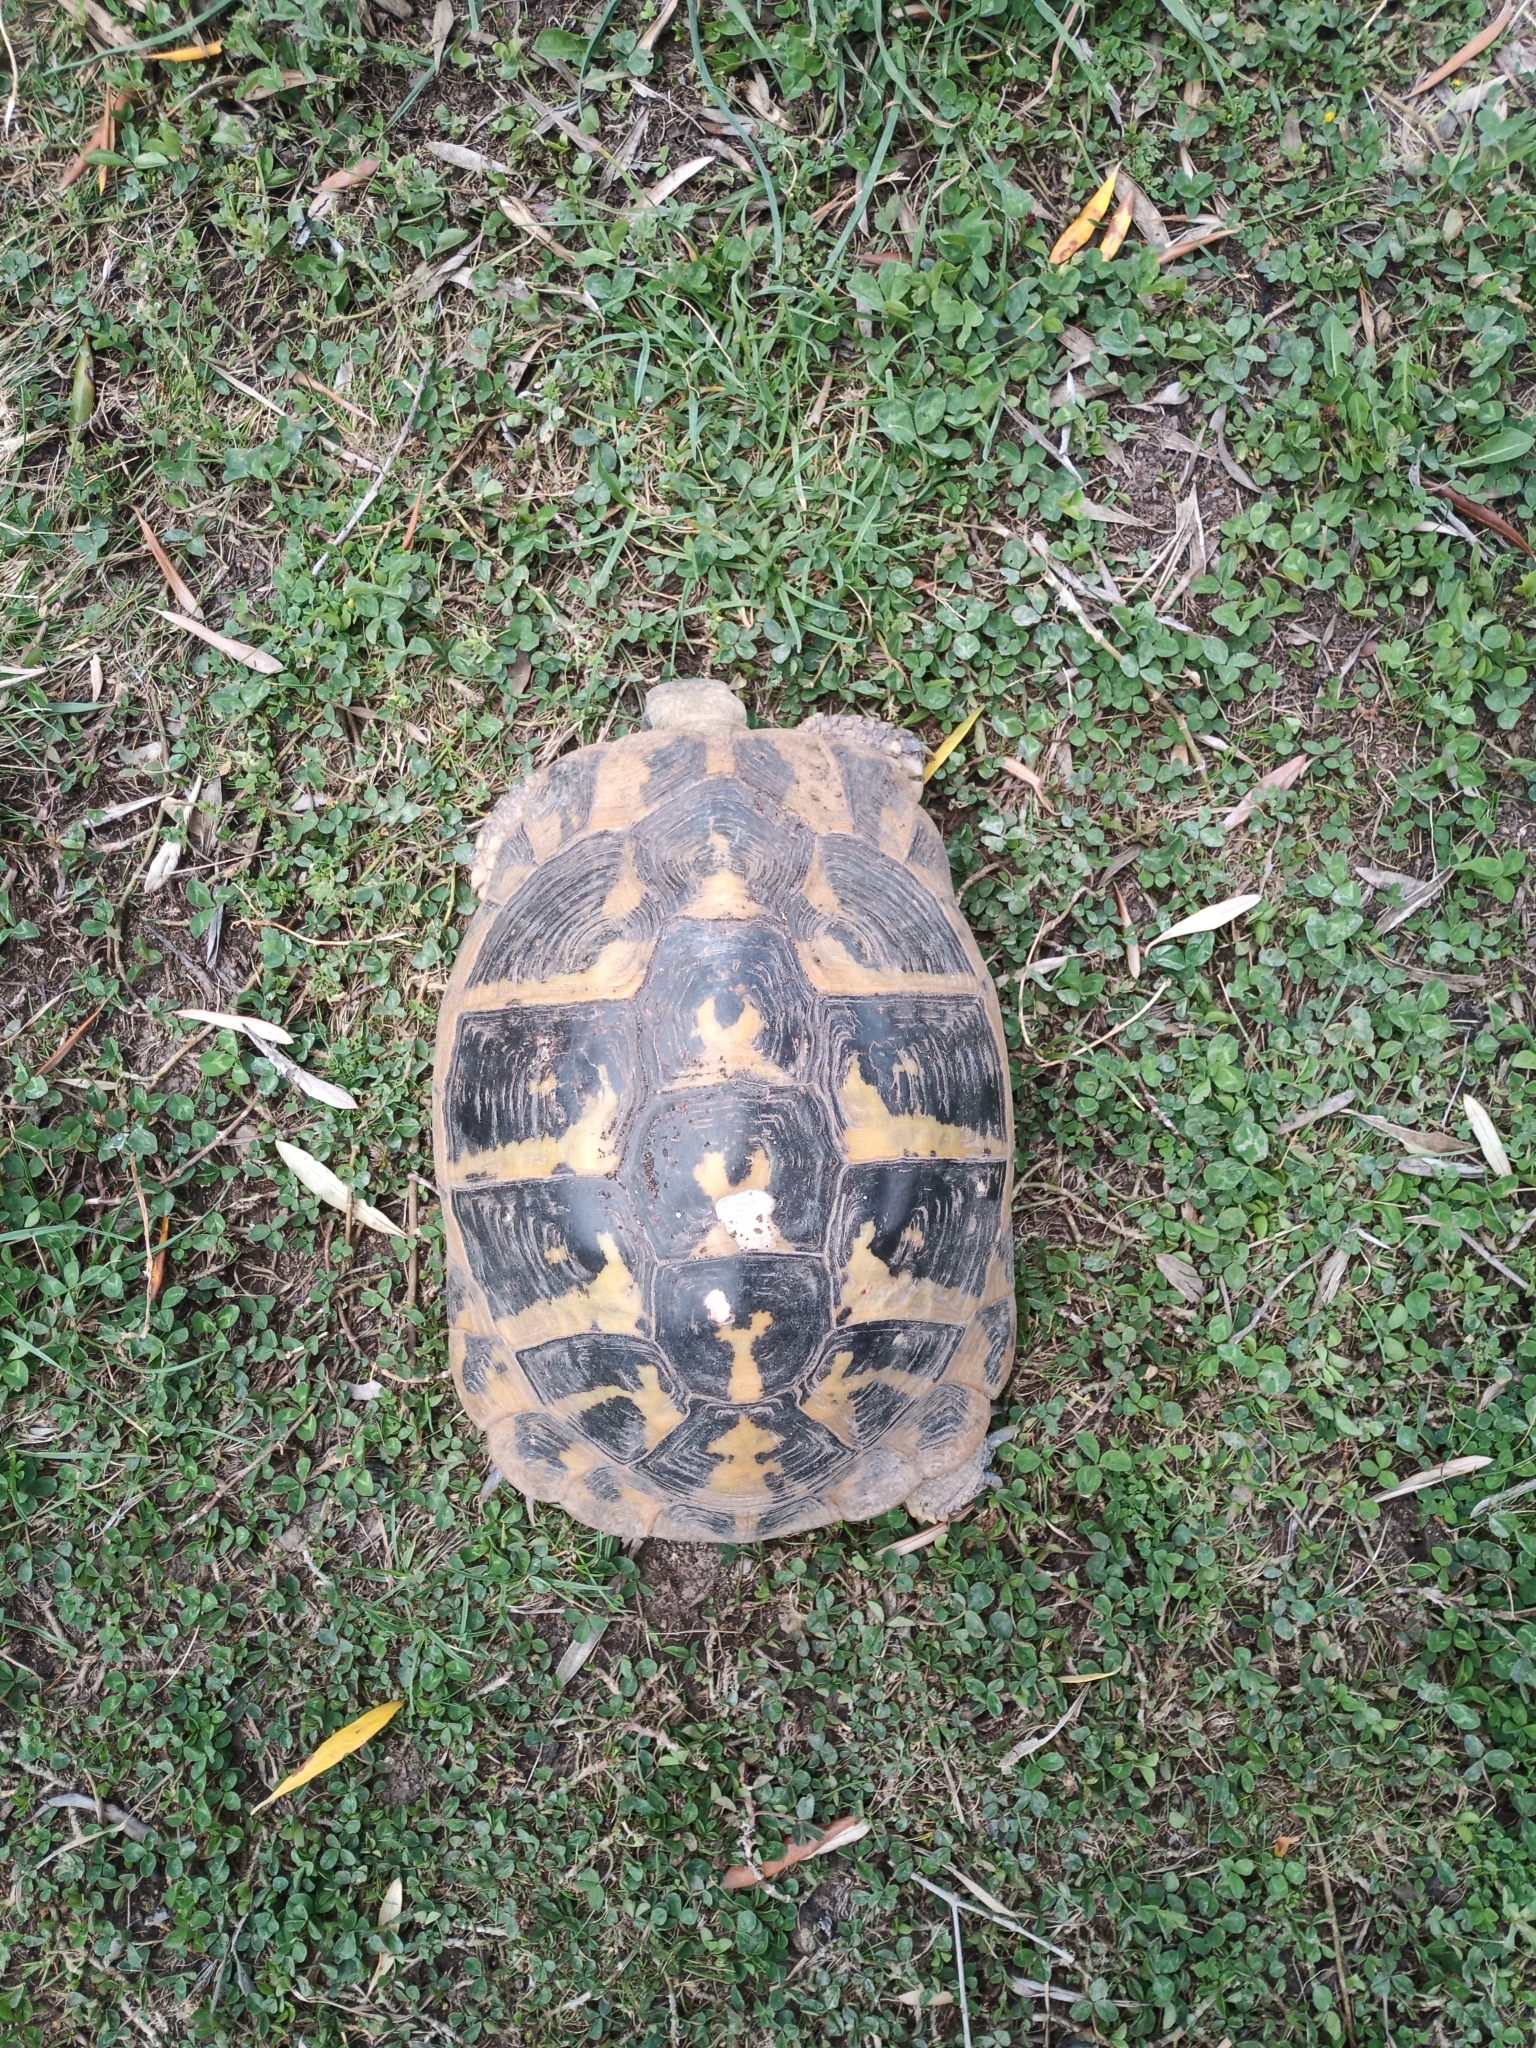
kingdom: Animalia
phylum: Chordata
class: Testudines
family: Testudinidae
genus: Testudo
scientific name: Testudo hermanni
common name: Hermann's tortoise
